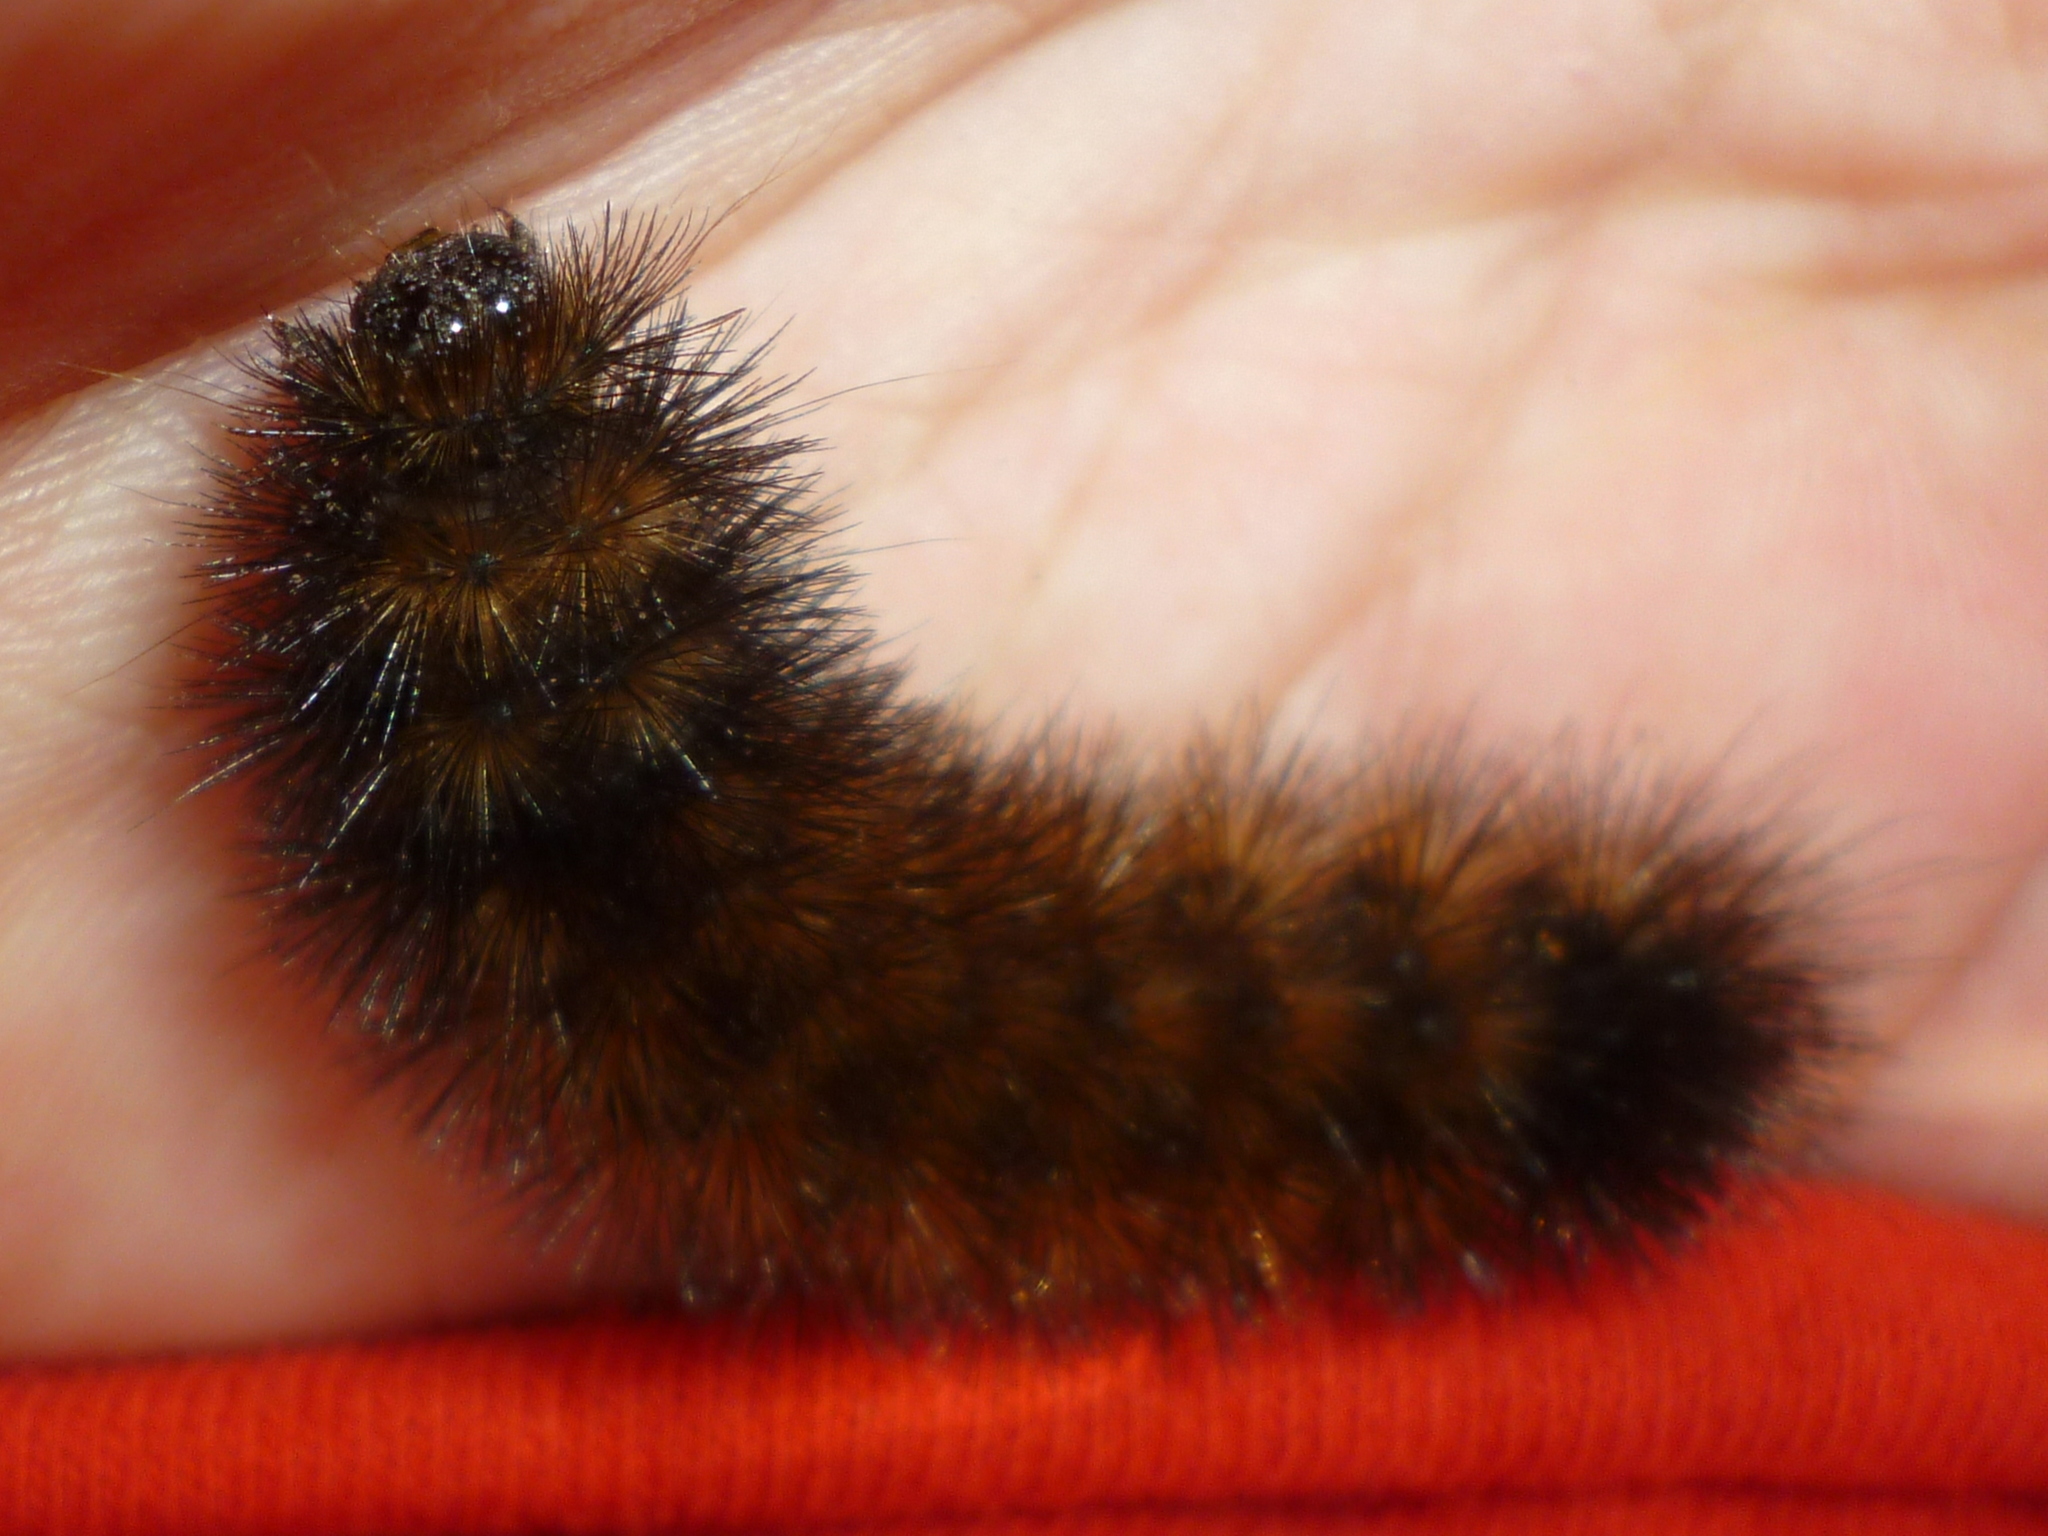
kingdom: Animalia
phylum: Arthropoda
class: Insecta
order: Lepidoptera
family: Erebidae
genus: Pyrrharctia
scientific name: Pyrrharctia isabella
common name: Isabella tiger moth
